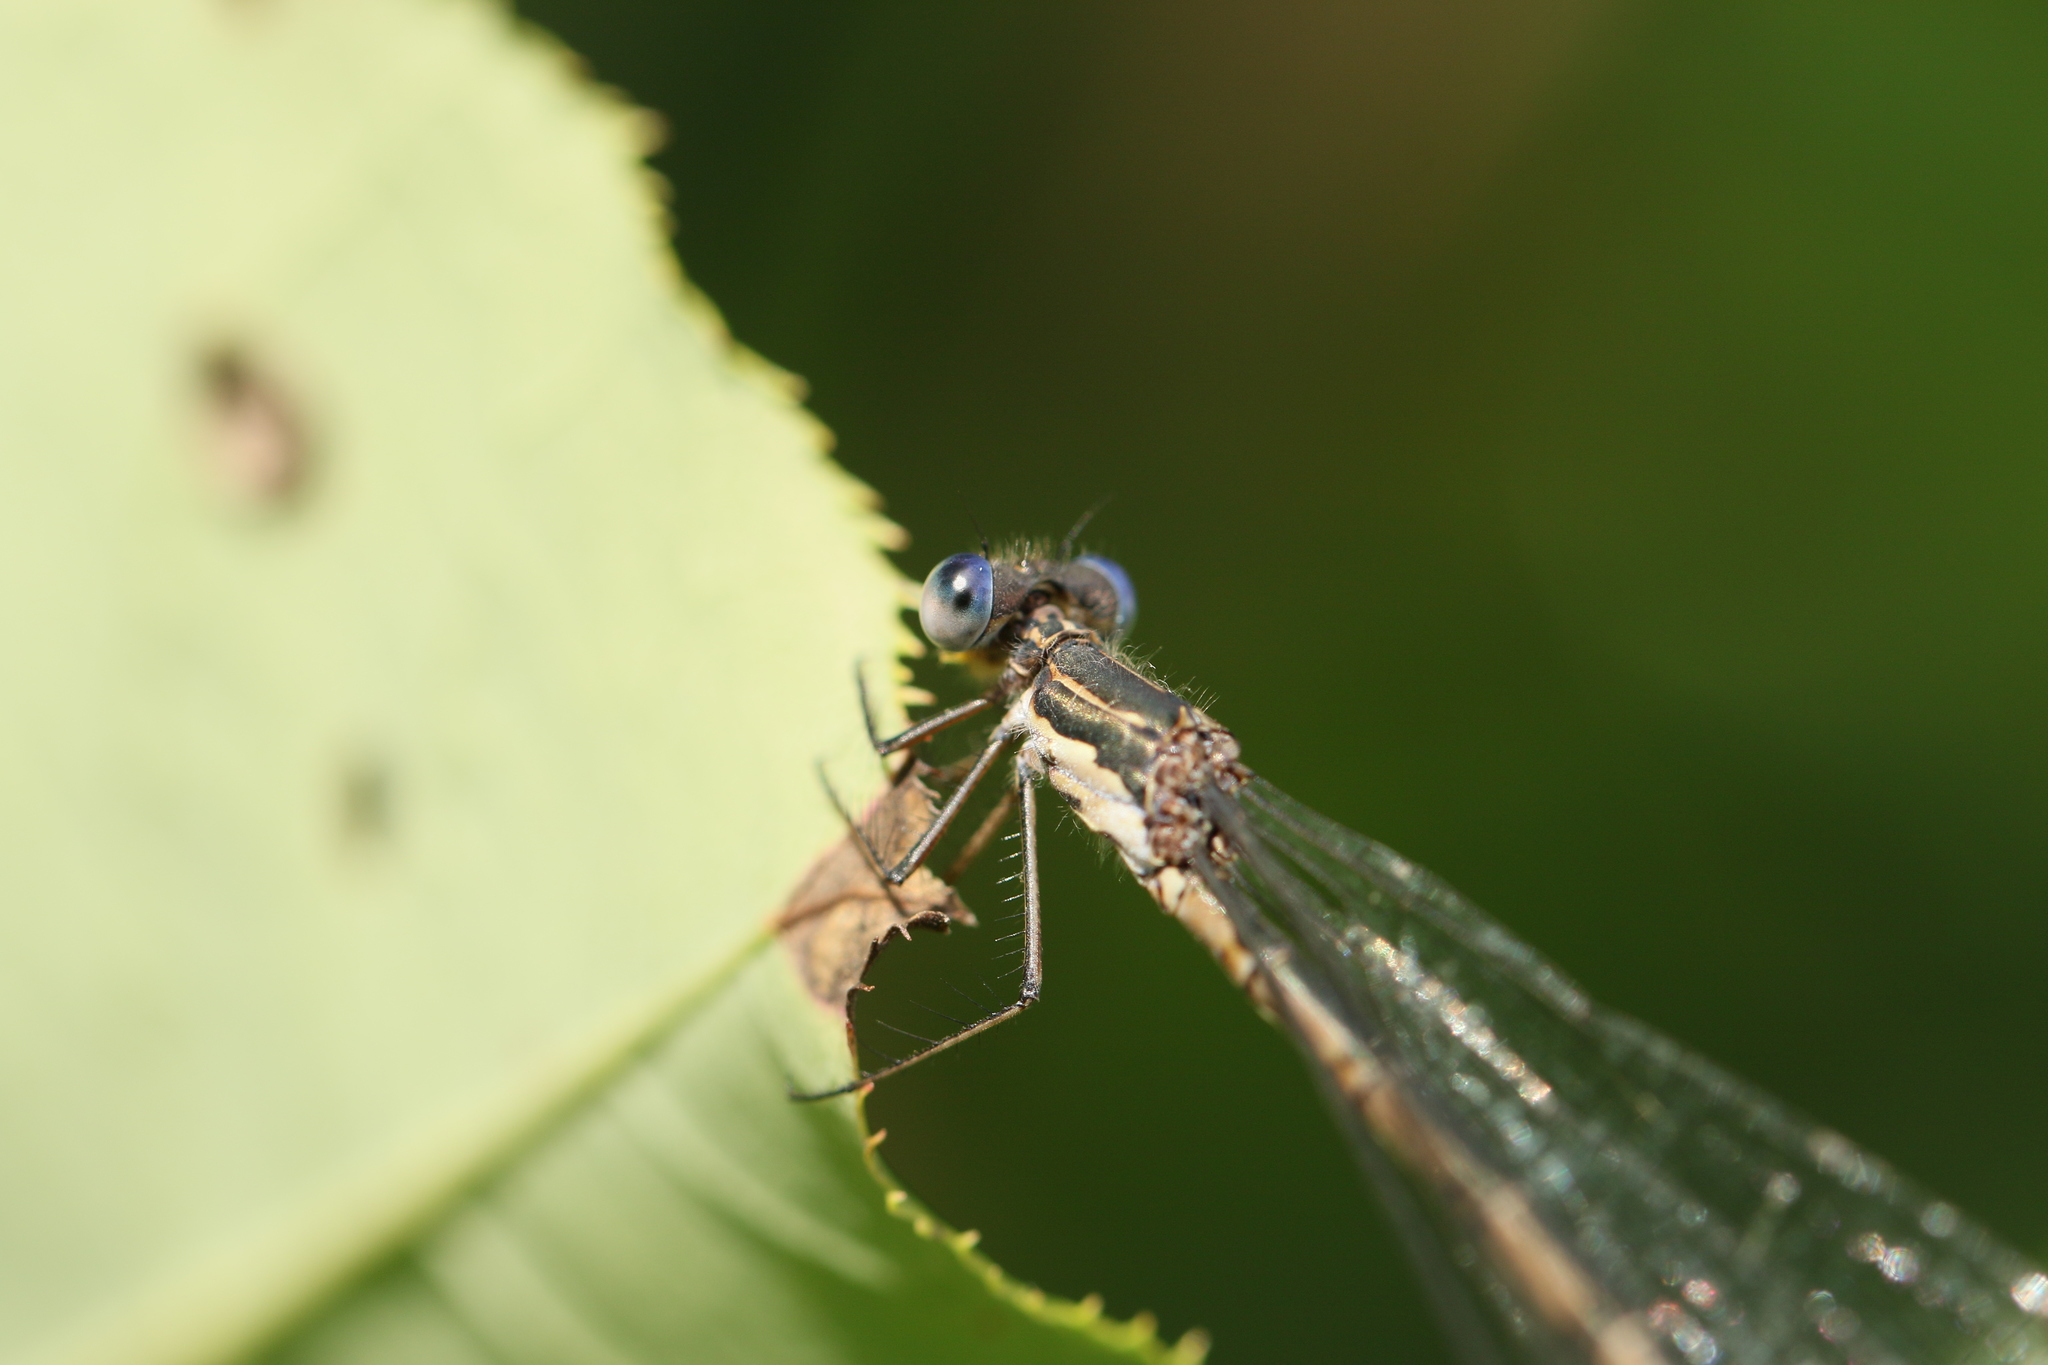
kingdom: Animalia
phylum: Arthropoda
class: Insecta
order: Odonata
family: Lestidae
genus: Lestes
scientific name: Lestes congener
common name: Spotted spreadwing
